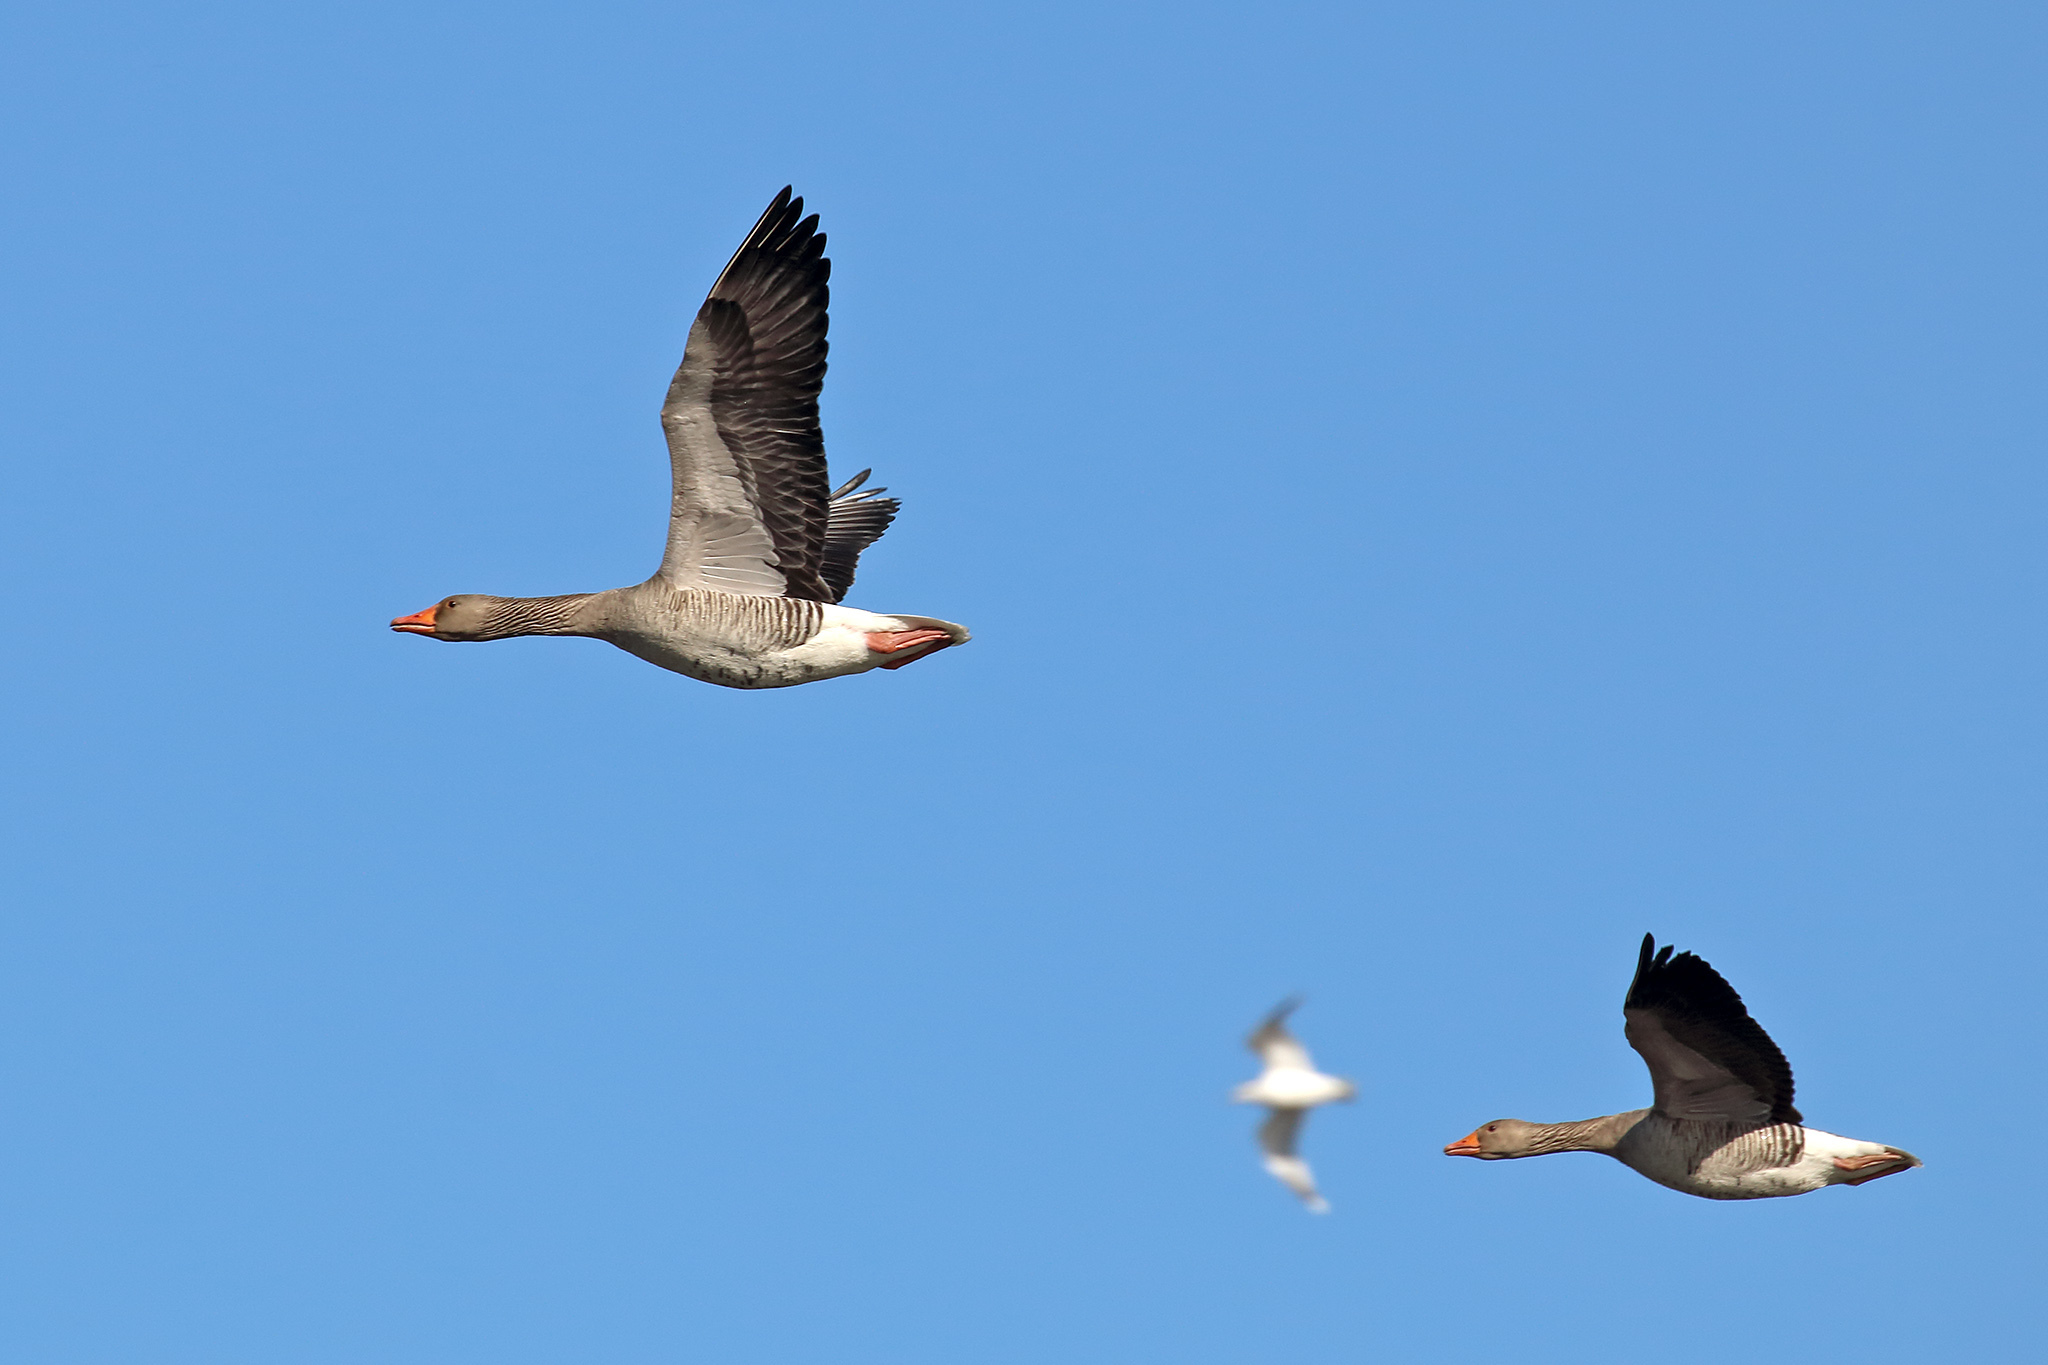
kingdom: Animalia
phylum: Chordata
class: Aves
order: Anseriformes
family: Anatidae
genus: Anser
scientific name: Anser anser
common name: Greylag goose
